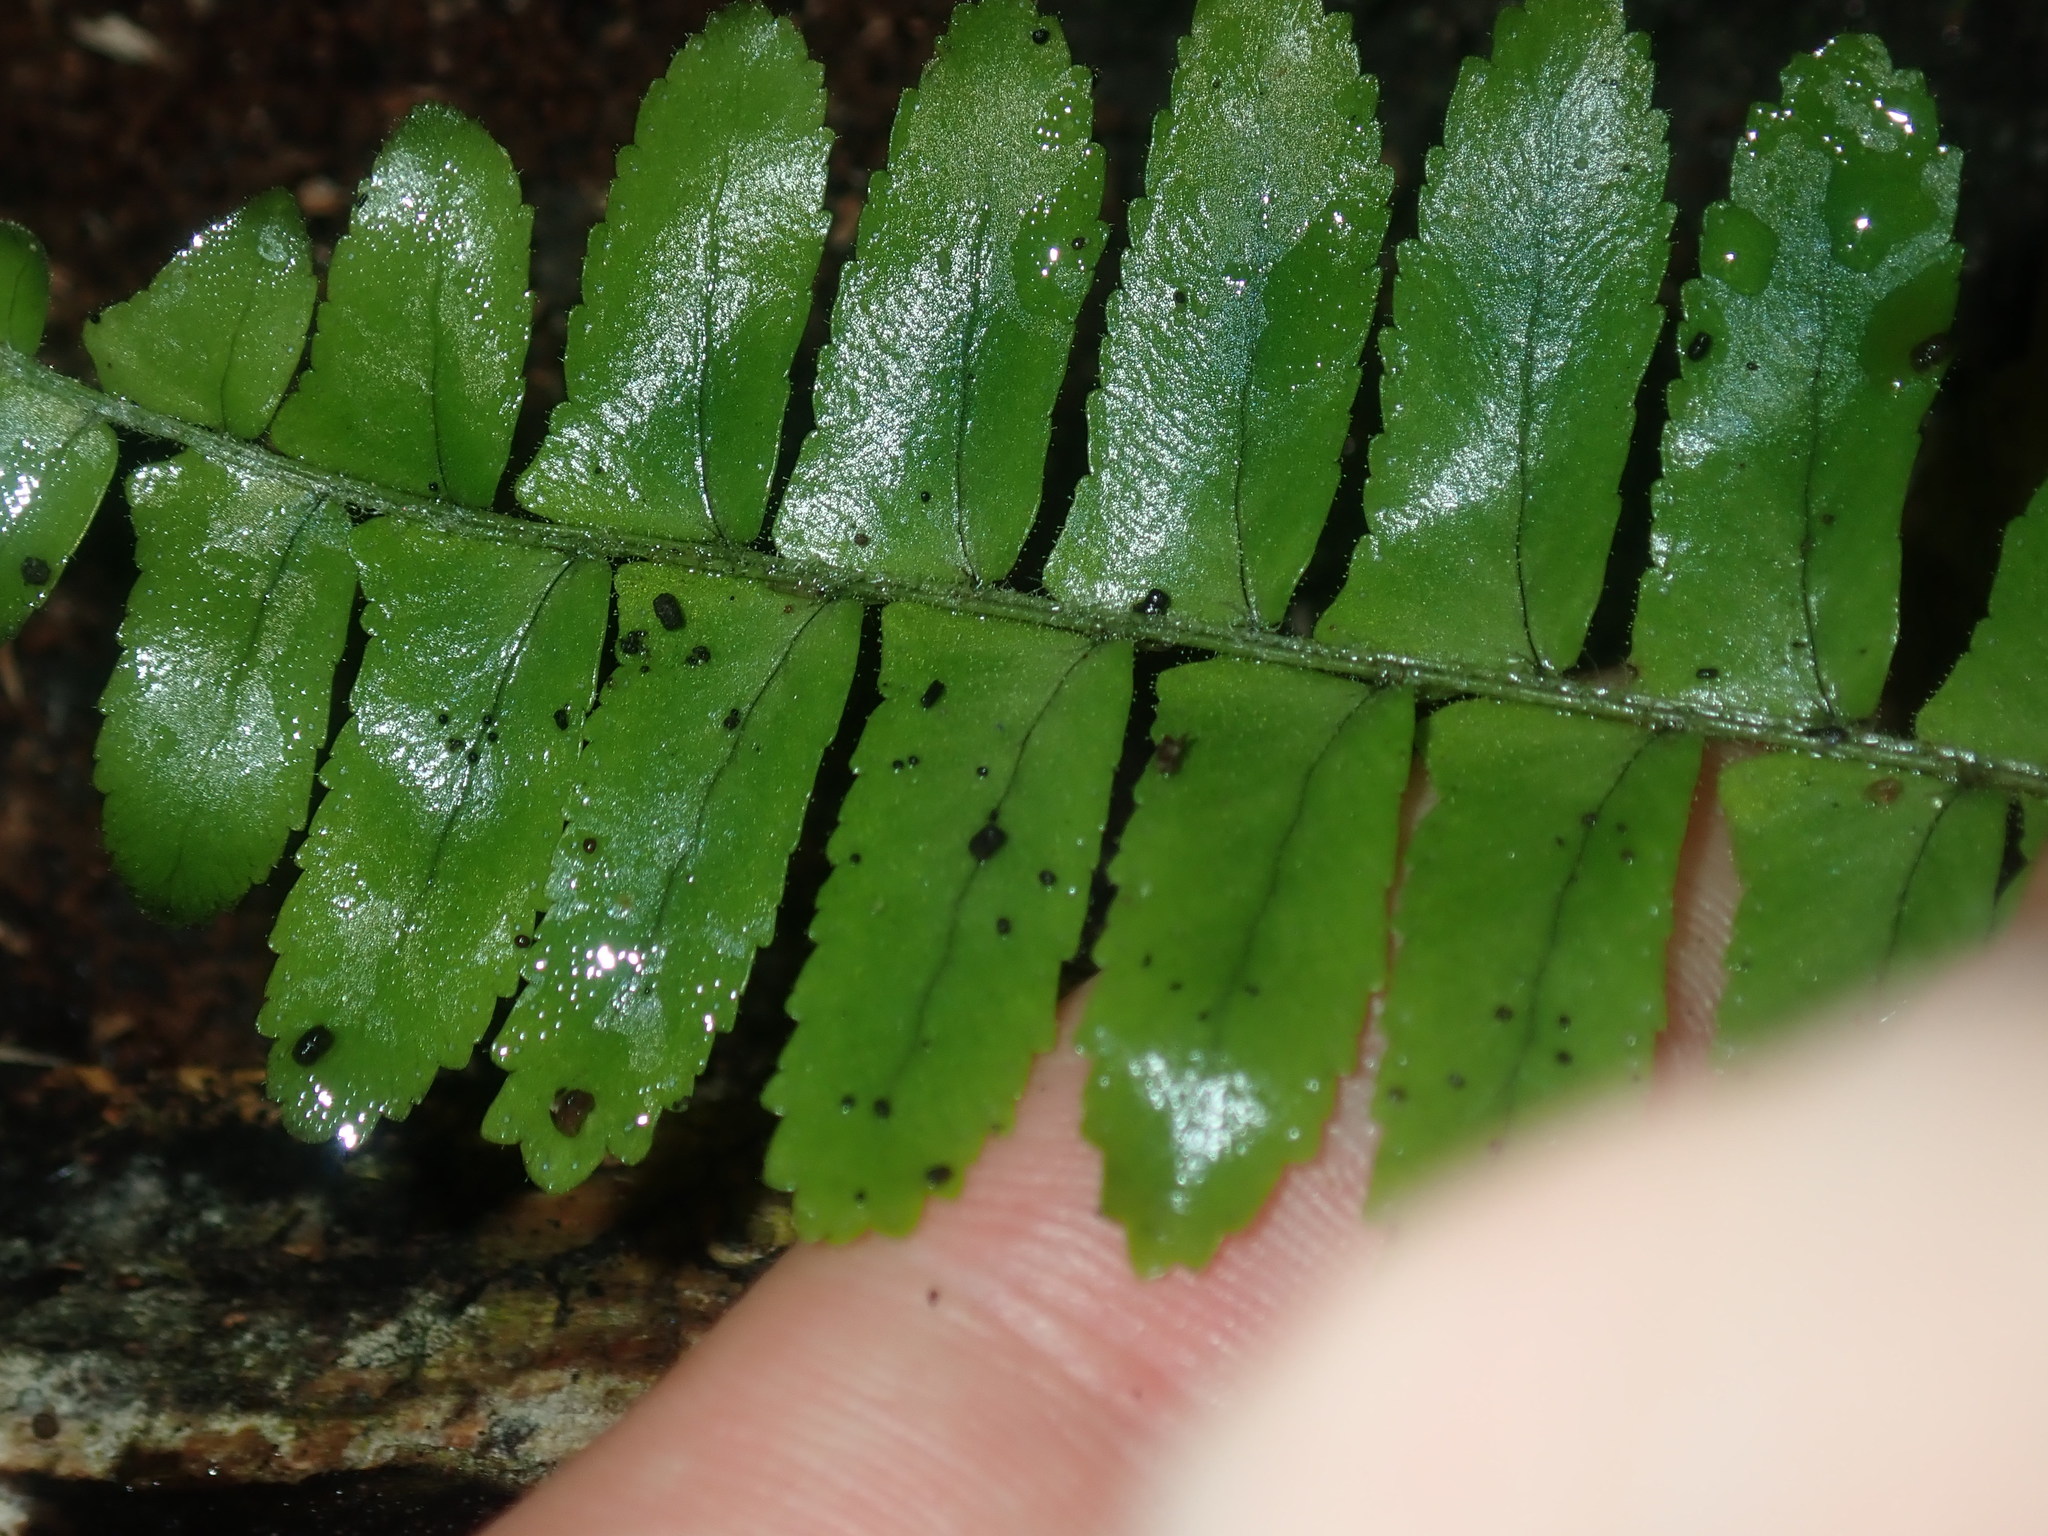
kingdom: Plantae
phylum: Tracheophyta
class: Polypodiopsida
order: Polypodiales
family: Nephrolepidaceae
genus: Nephrolepis
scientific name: Nephrolepis cordifolia
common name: Narrow swordfern
